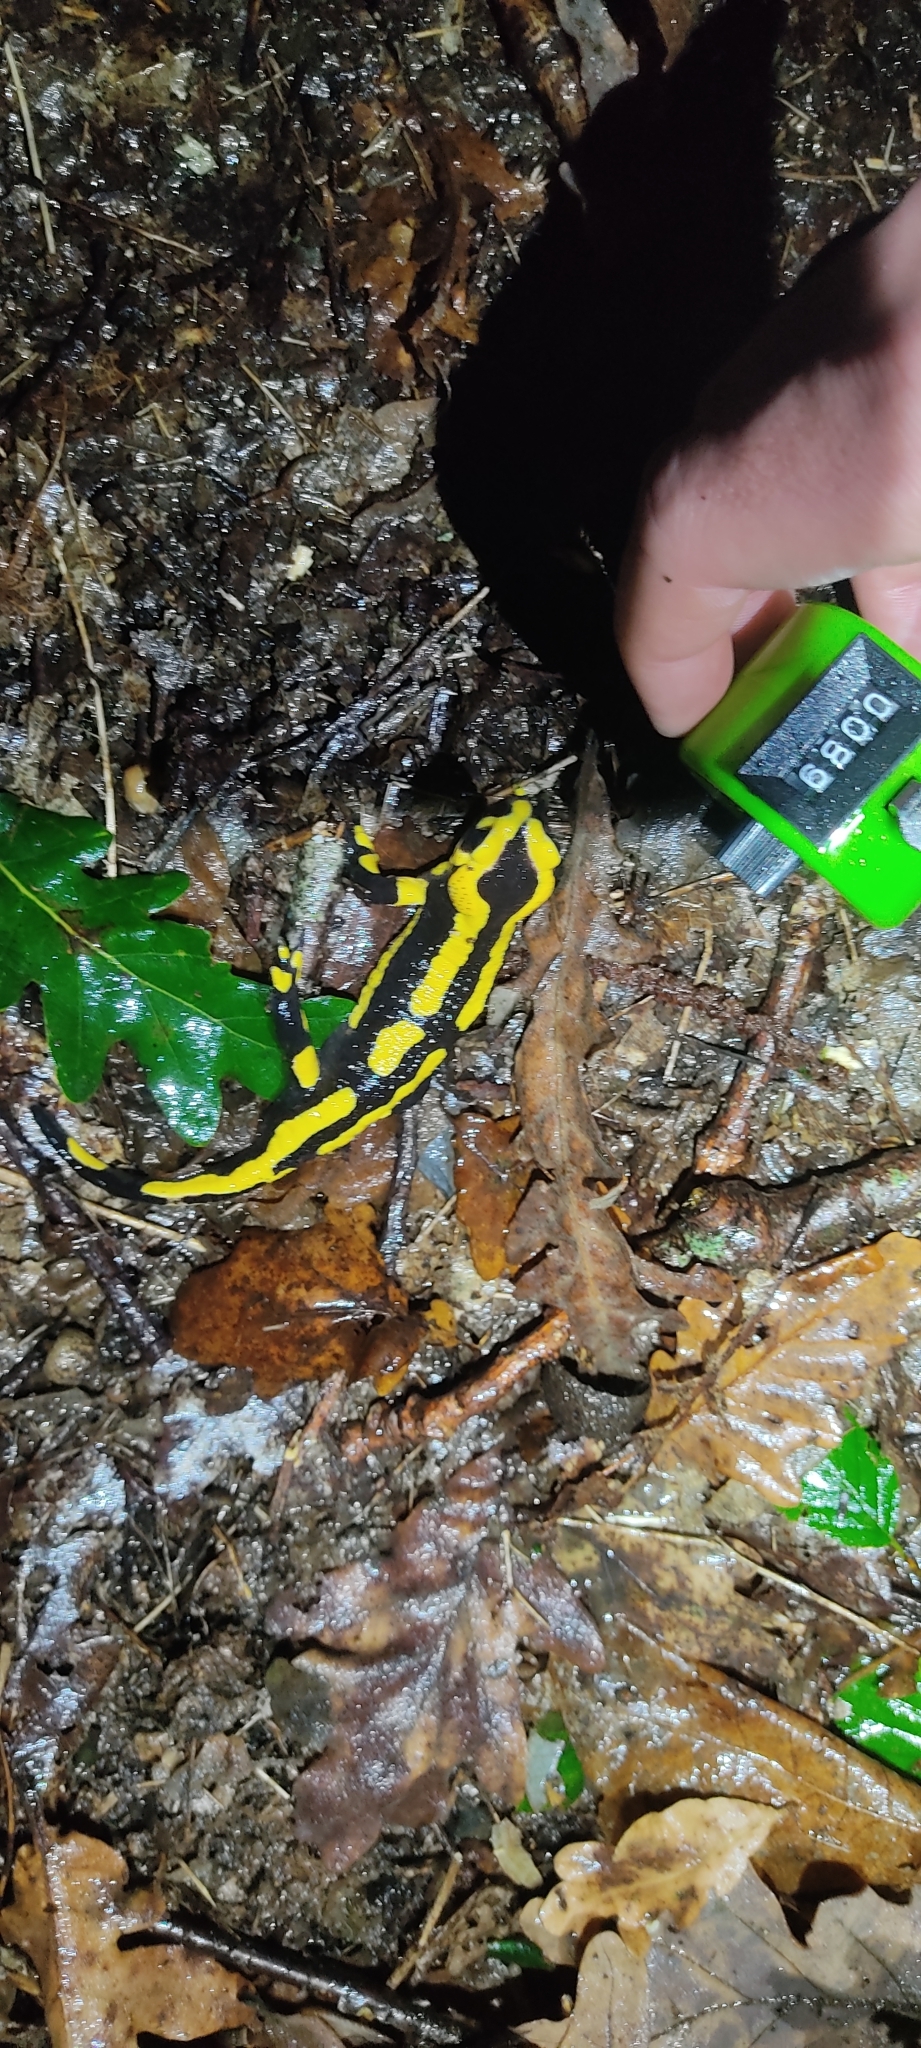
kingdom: Animalia
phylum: Chordata
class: Amphibia
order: Caudata
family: Salamandridae
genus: Salamandra
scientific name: Salamandra salamandra
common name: Fire salamander
